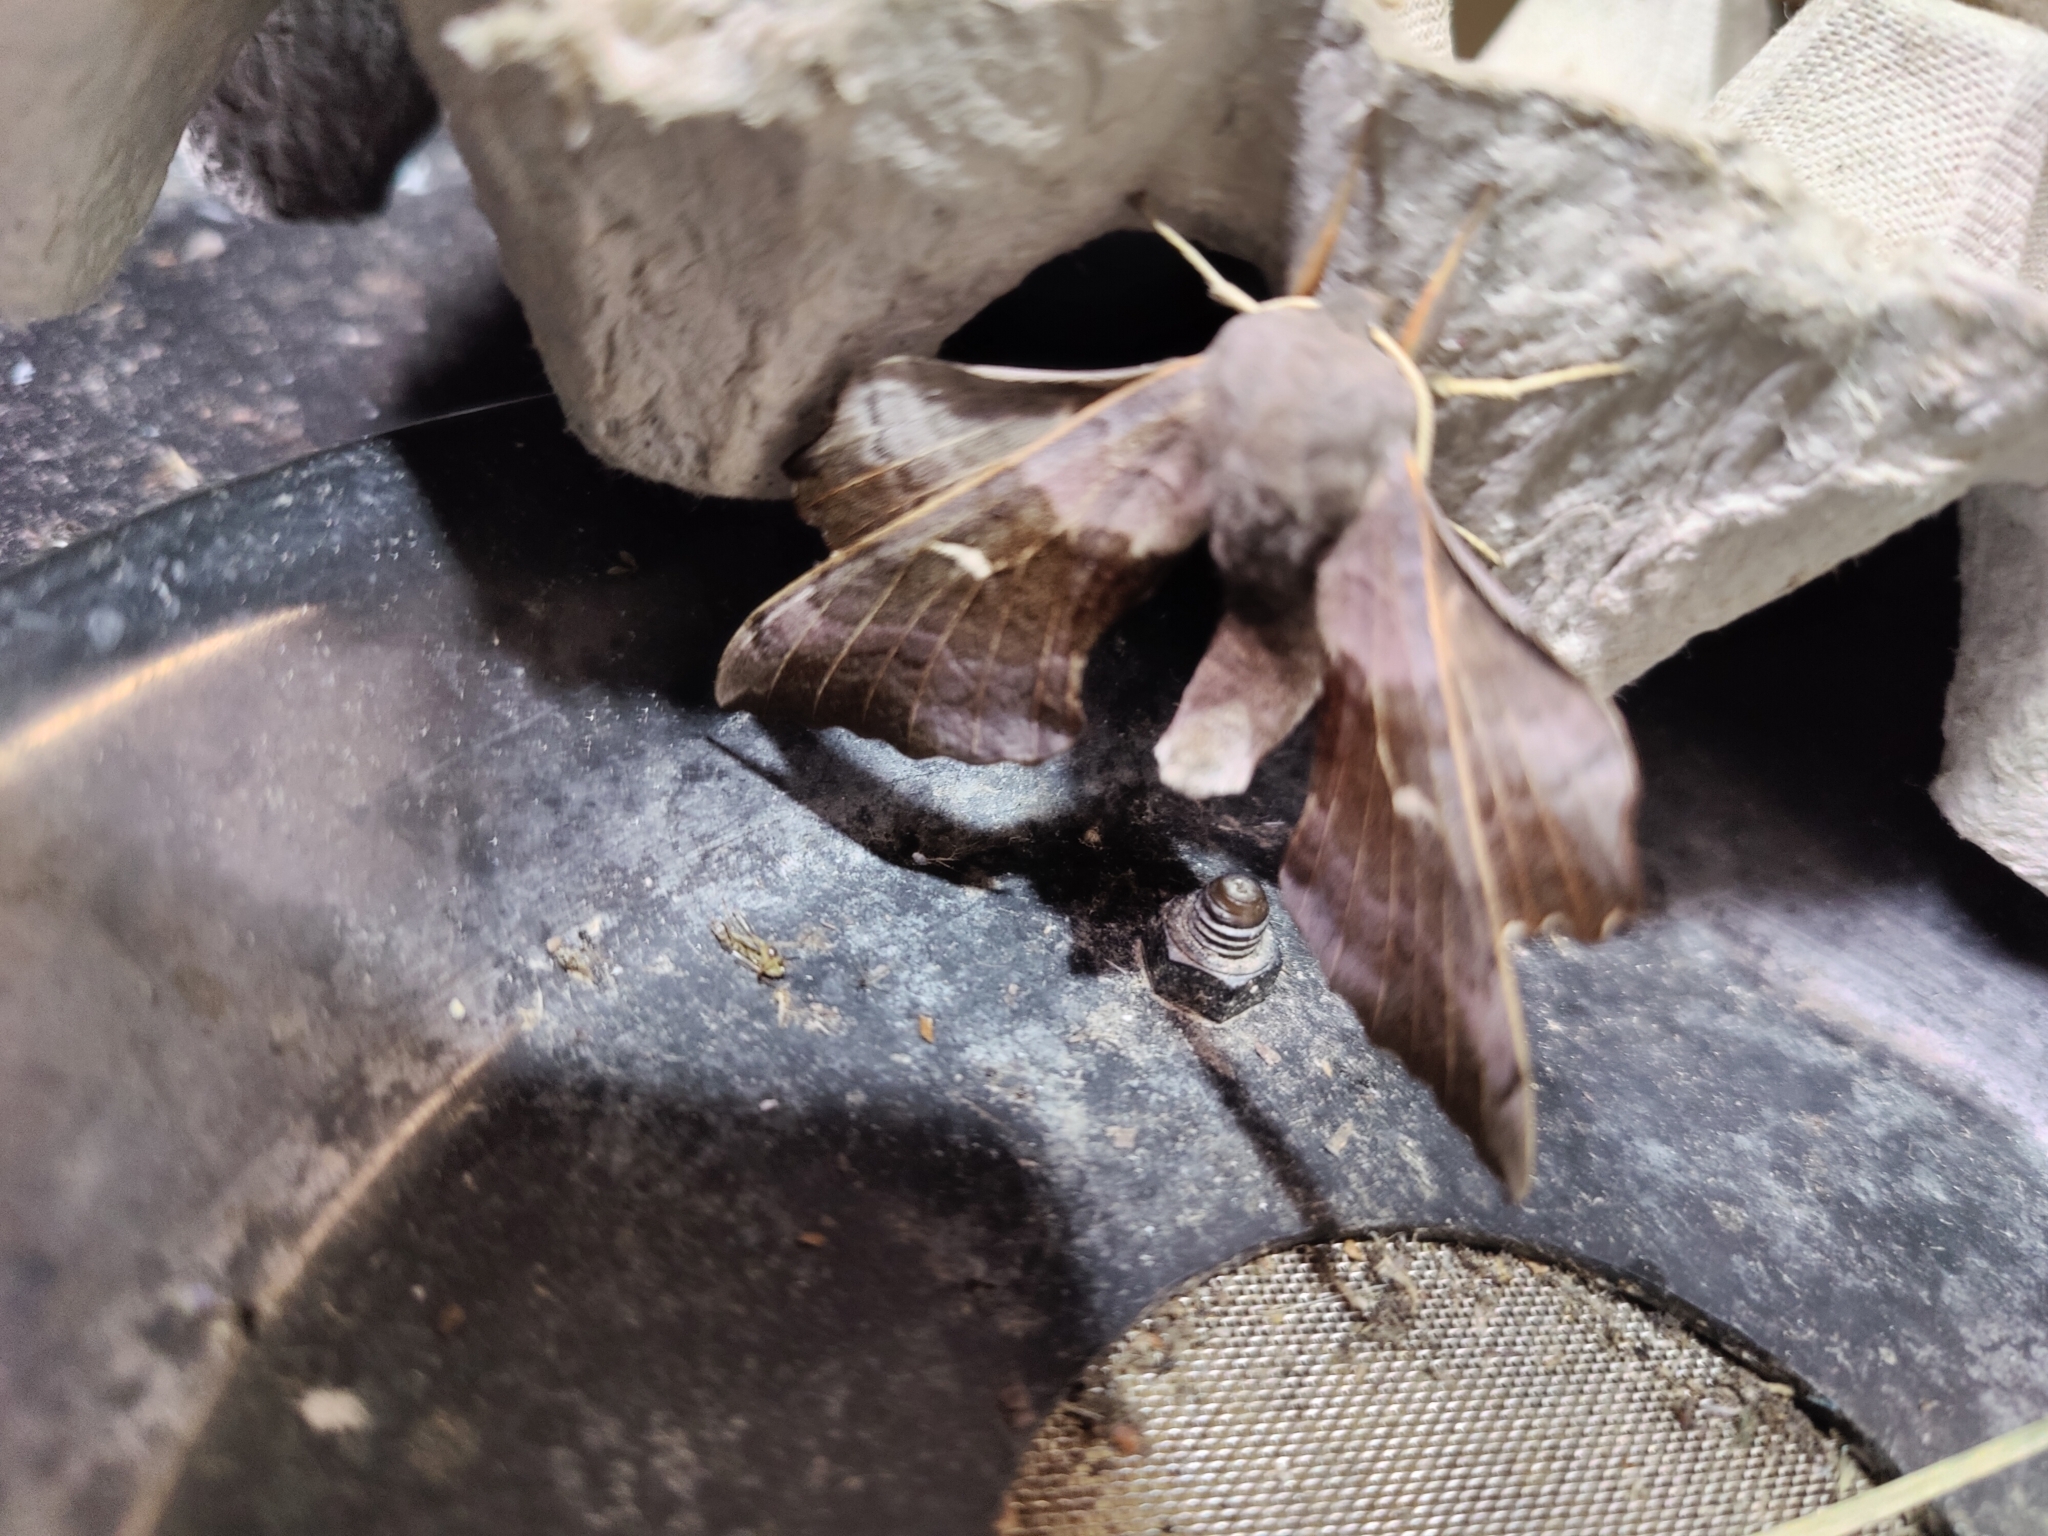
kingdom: Animalia
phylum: Arthropoda
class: Insecta
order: Lepidoptera
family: Sphingidae
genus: Laothoe
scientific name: Laothoe populi
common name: Poplar hawk-moth
